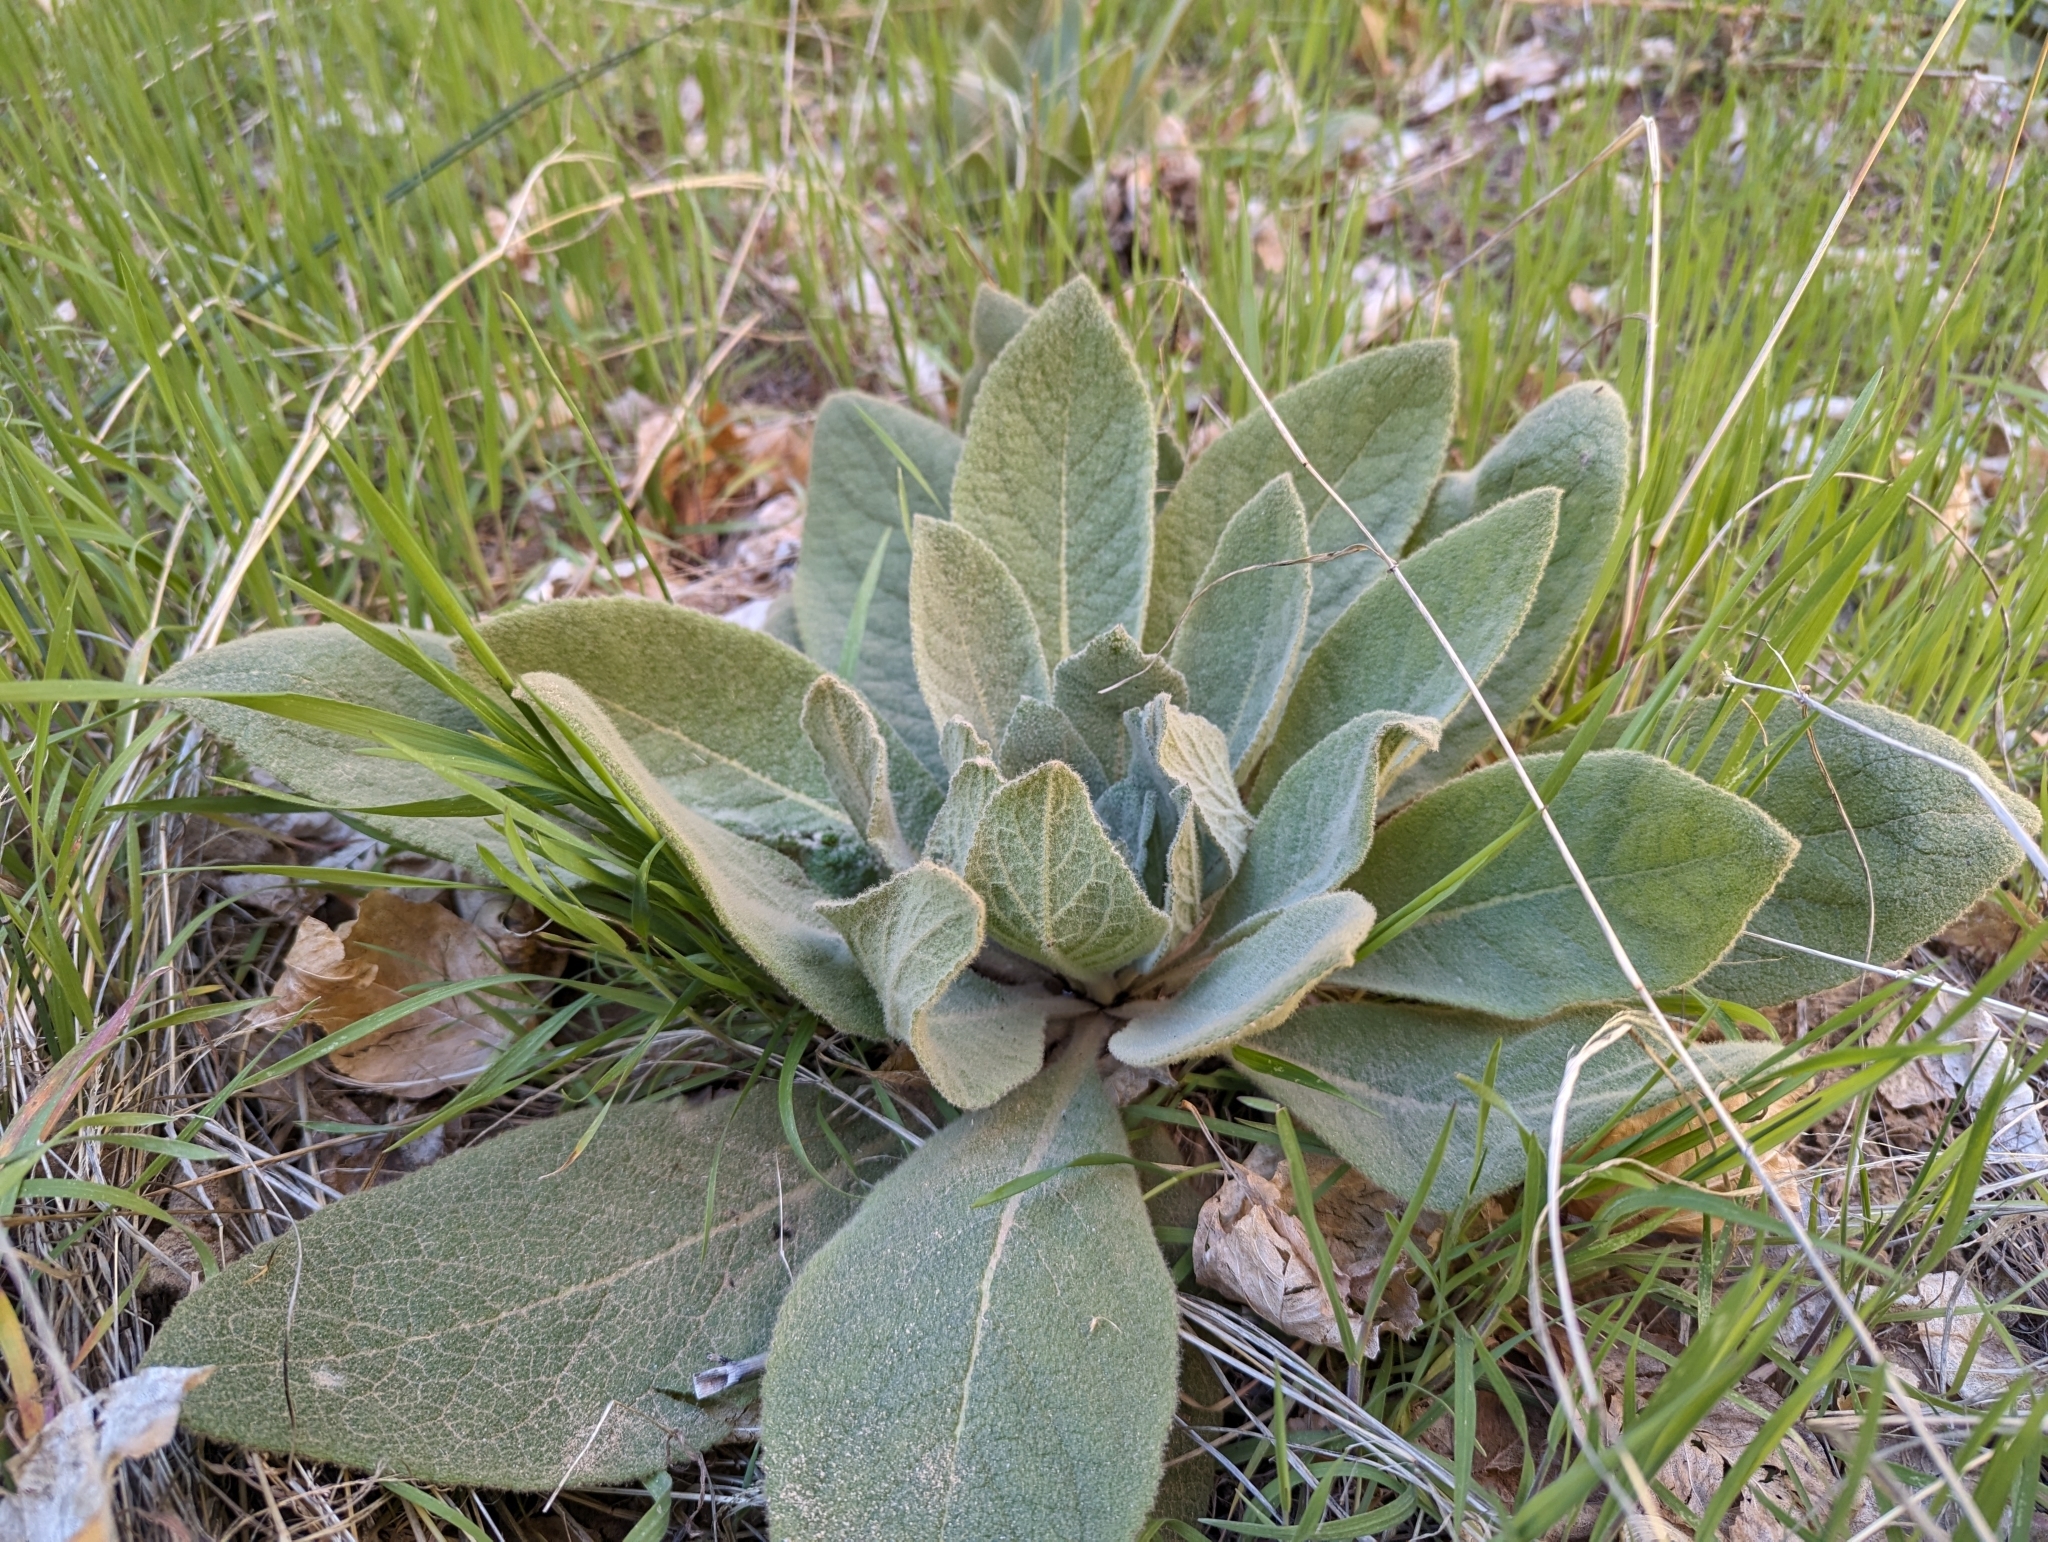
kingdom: Plantae
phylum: Tracheophyta
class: Magnoliopsida
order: Lamiales
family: Scrophulariaceae
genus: Verbascum
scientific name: Verbascum thapsus
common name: Common mullein
